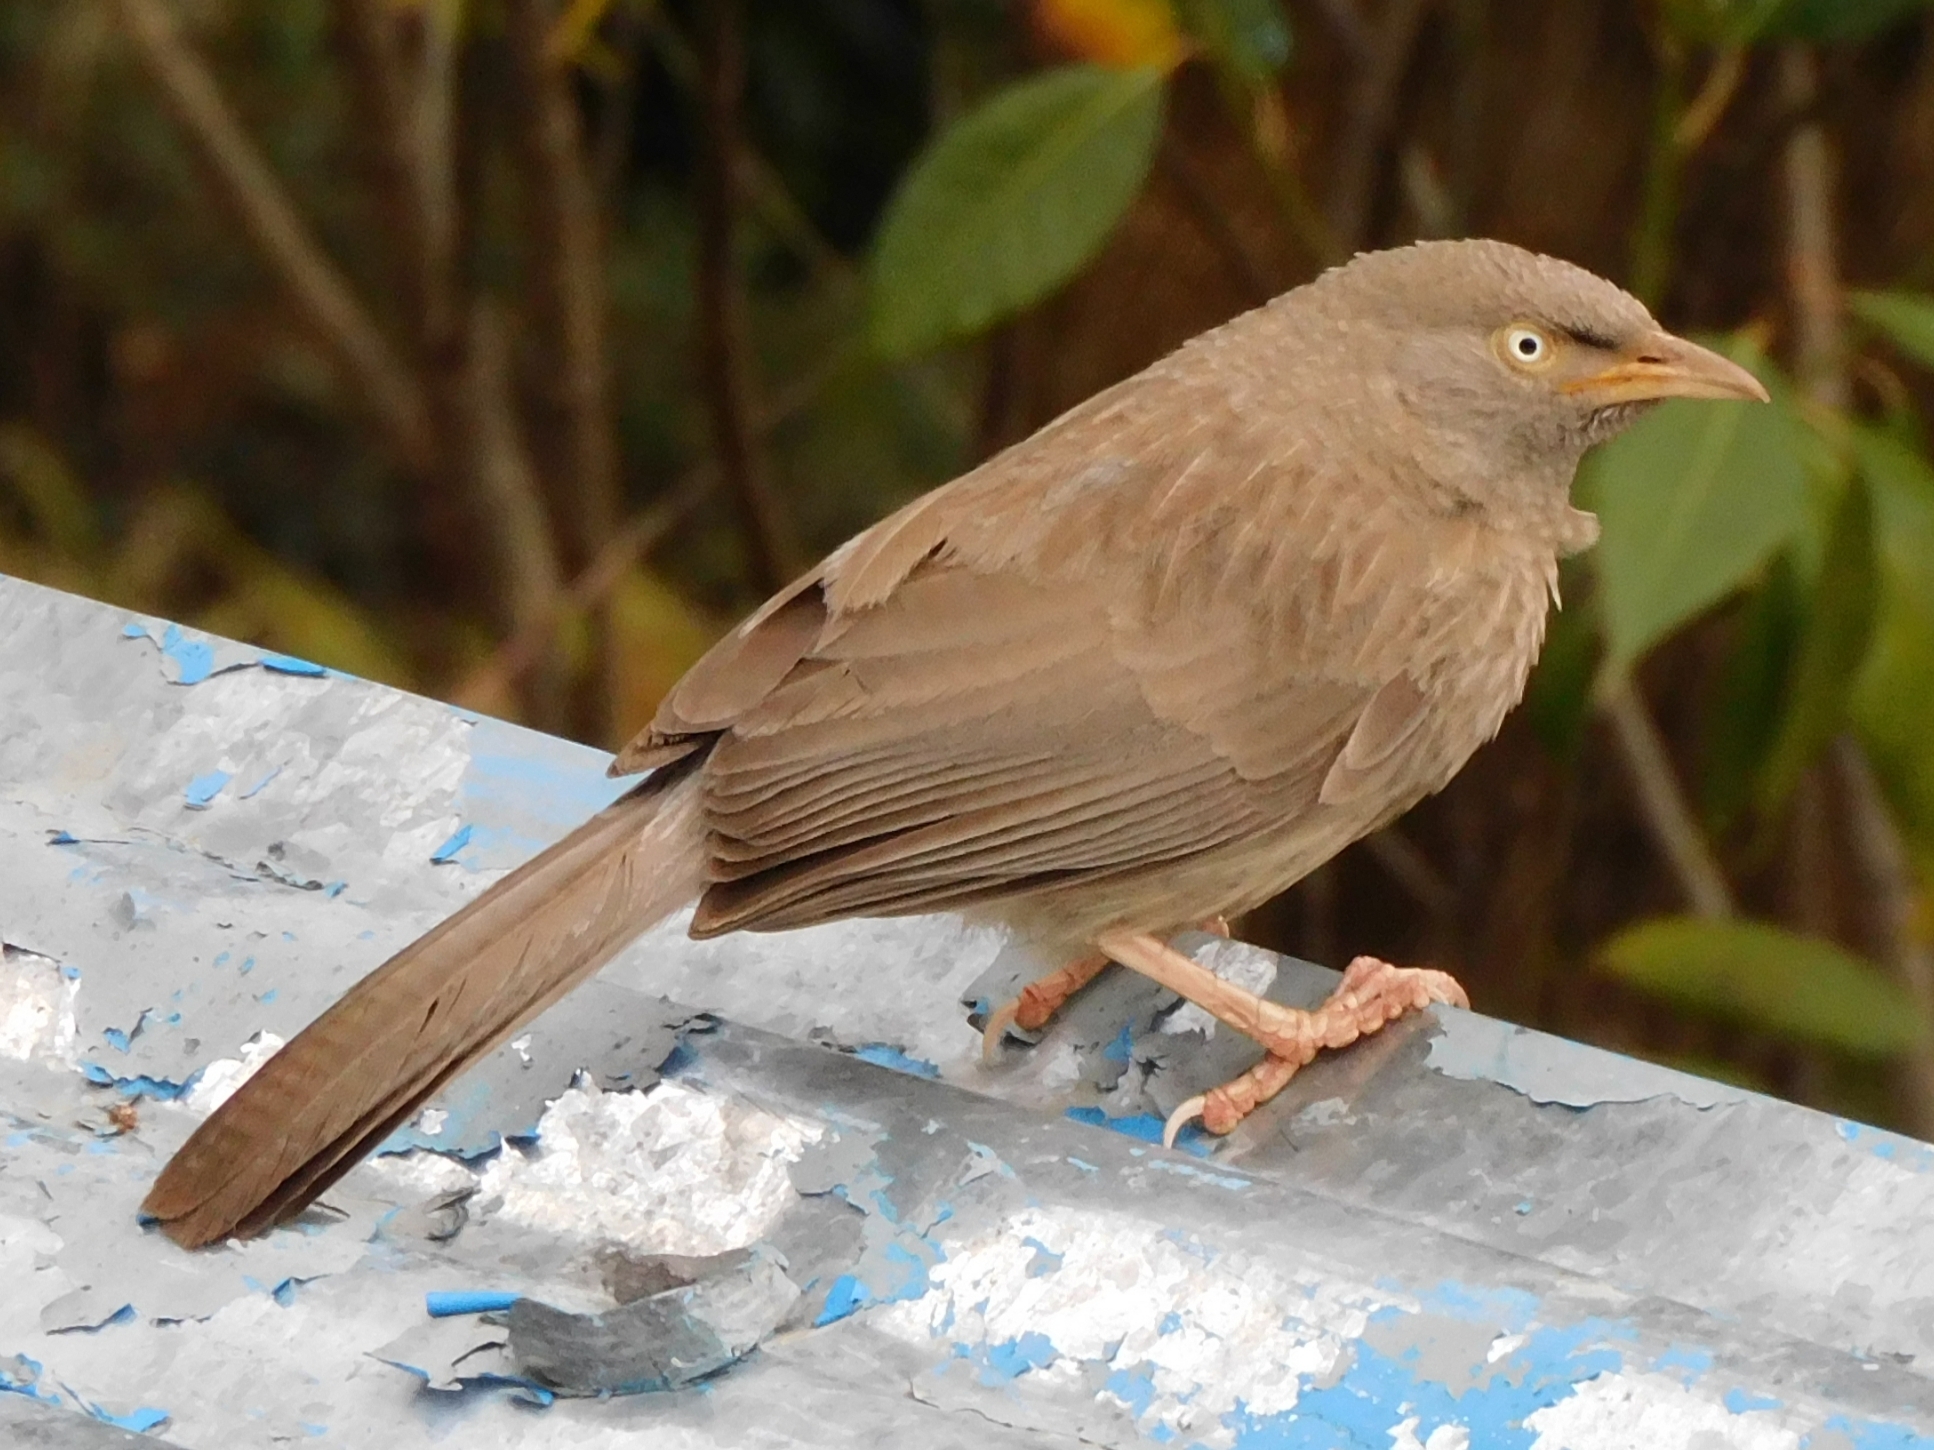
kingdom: Animalia
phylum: Chordata
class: Aves
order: Passeriformes
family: Leiothrichidae
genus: Turdoides
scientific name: Turdoides striata
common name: Jungle babbler
